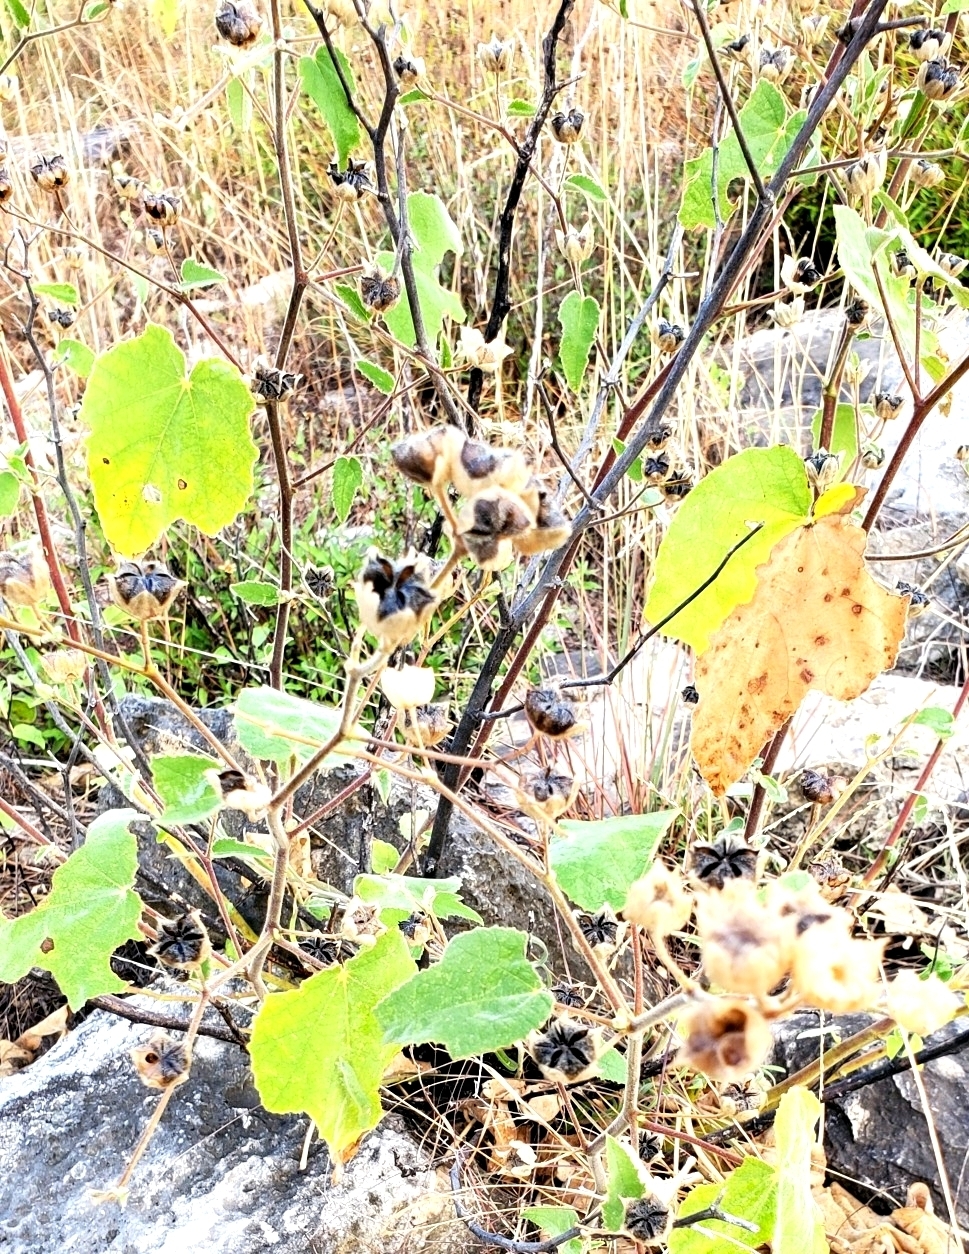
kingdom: Plantae
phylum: Tracheophyta
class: Magnoliopsida
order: Malvales
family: Malvaceae
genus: Allowissadula
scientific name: Allowissadula holosericea
